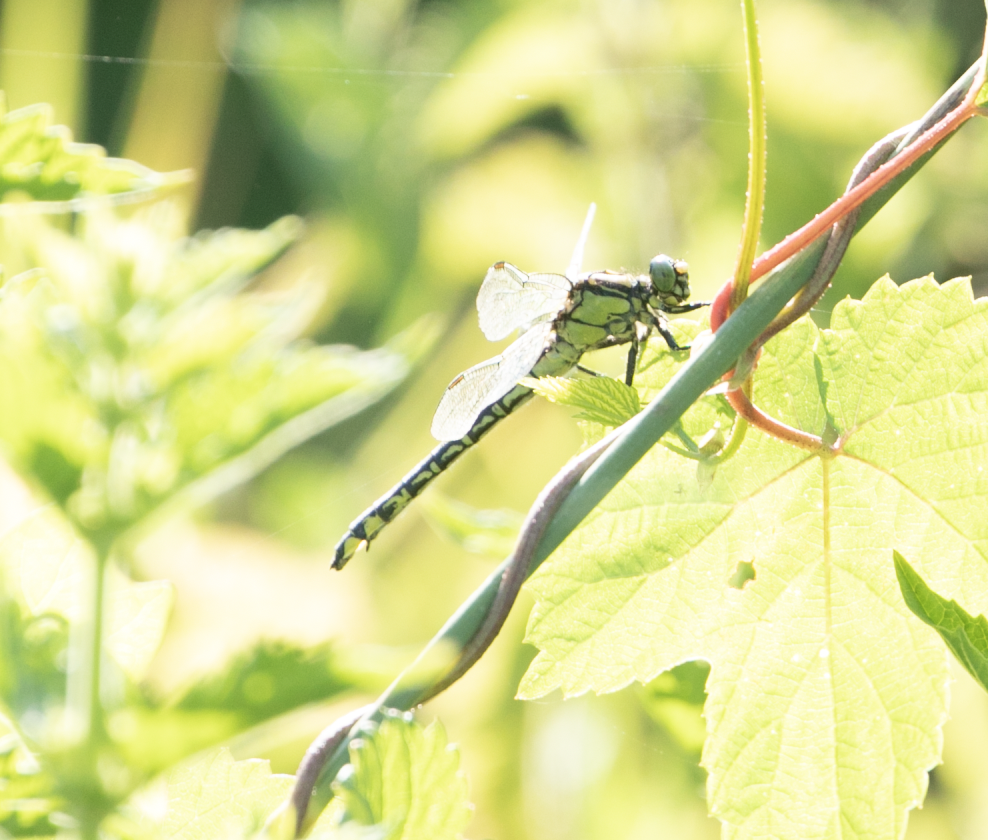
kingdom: Animalia
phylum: Arthropoda
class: Insecta
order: Odonata
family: Gomphidae
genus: Gomphus
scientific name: Gomphus vulgatissimus
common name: Club-tailed dragonfly
